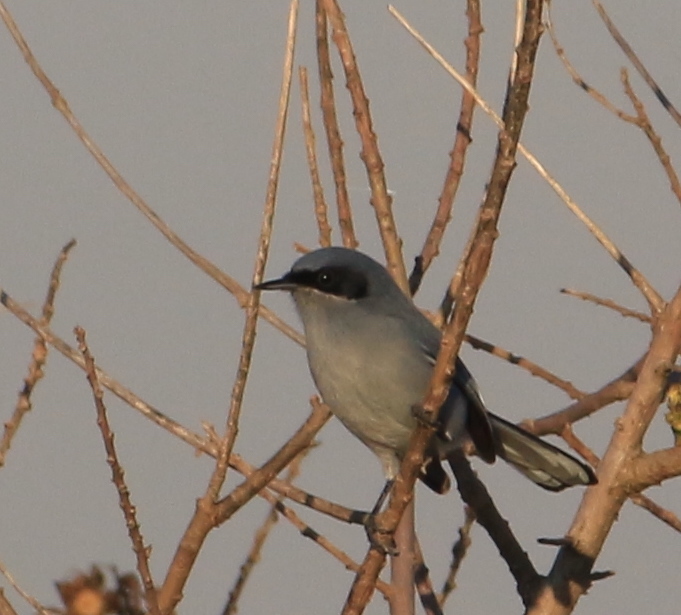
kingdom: Animalia
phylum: Chordata
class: Aves
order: Passeriformes
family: Polioptilidae
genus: Polioptila
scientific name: Polioptila dumicola
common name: Masked gnatcatcher
